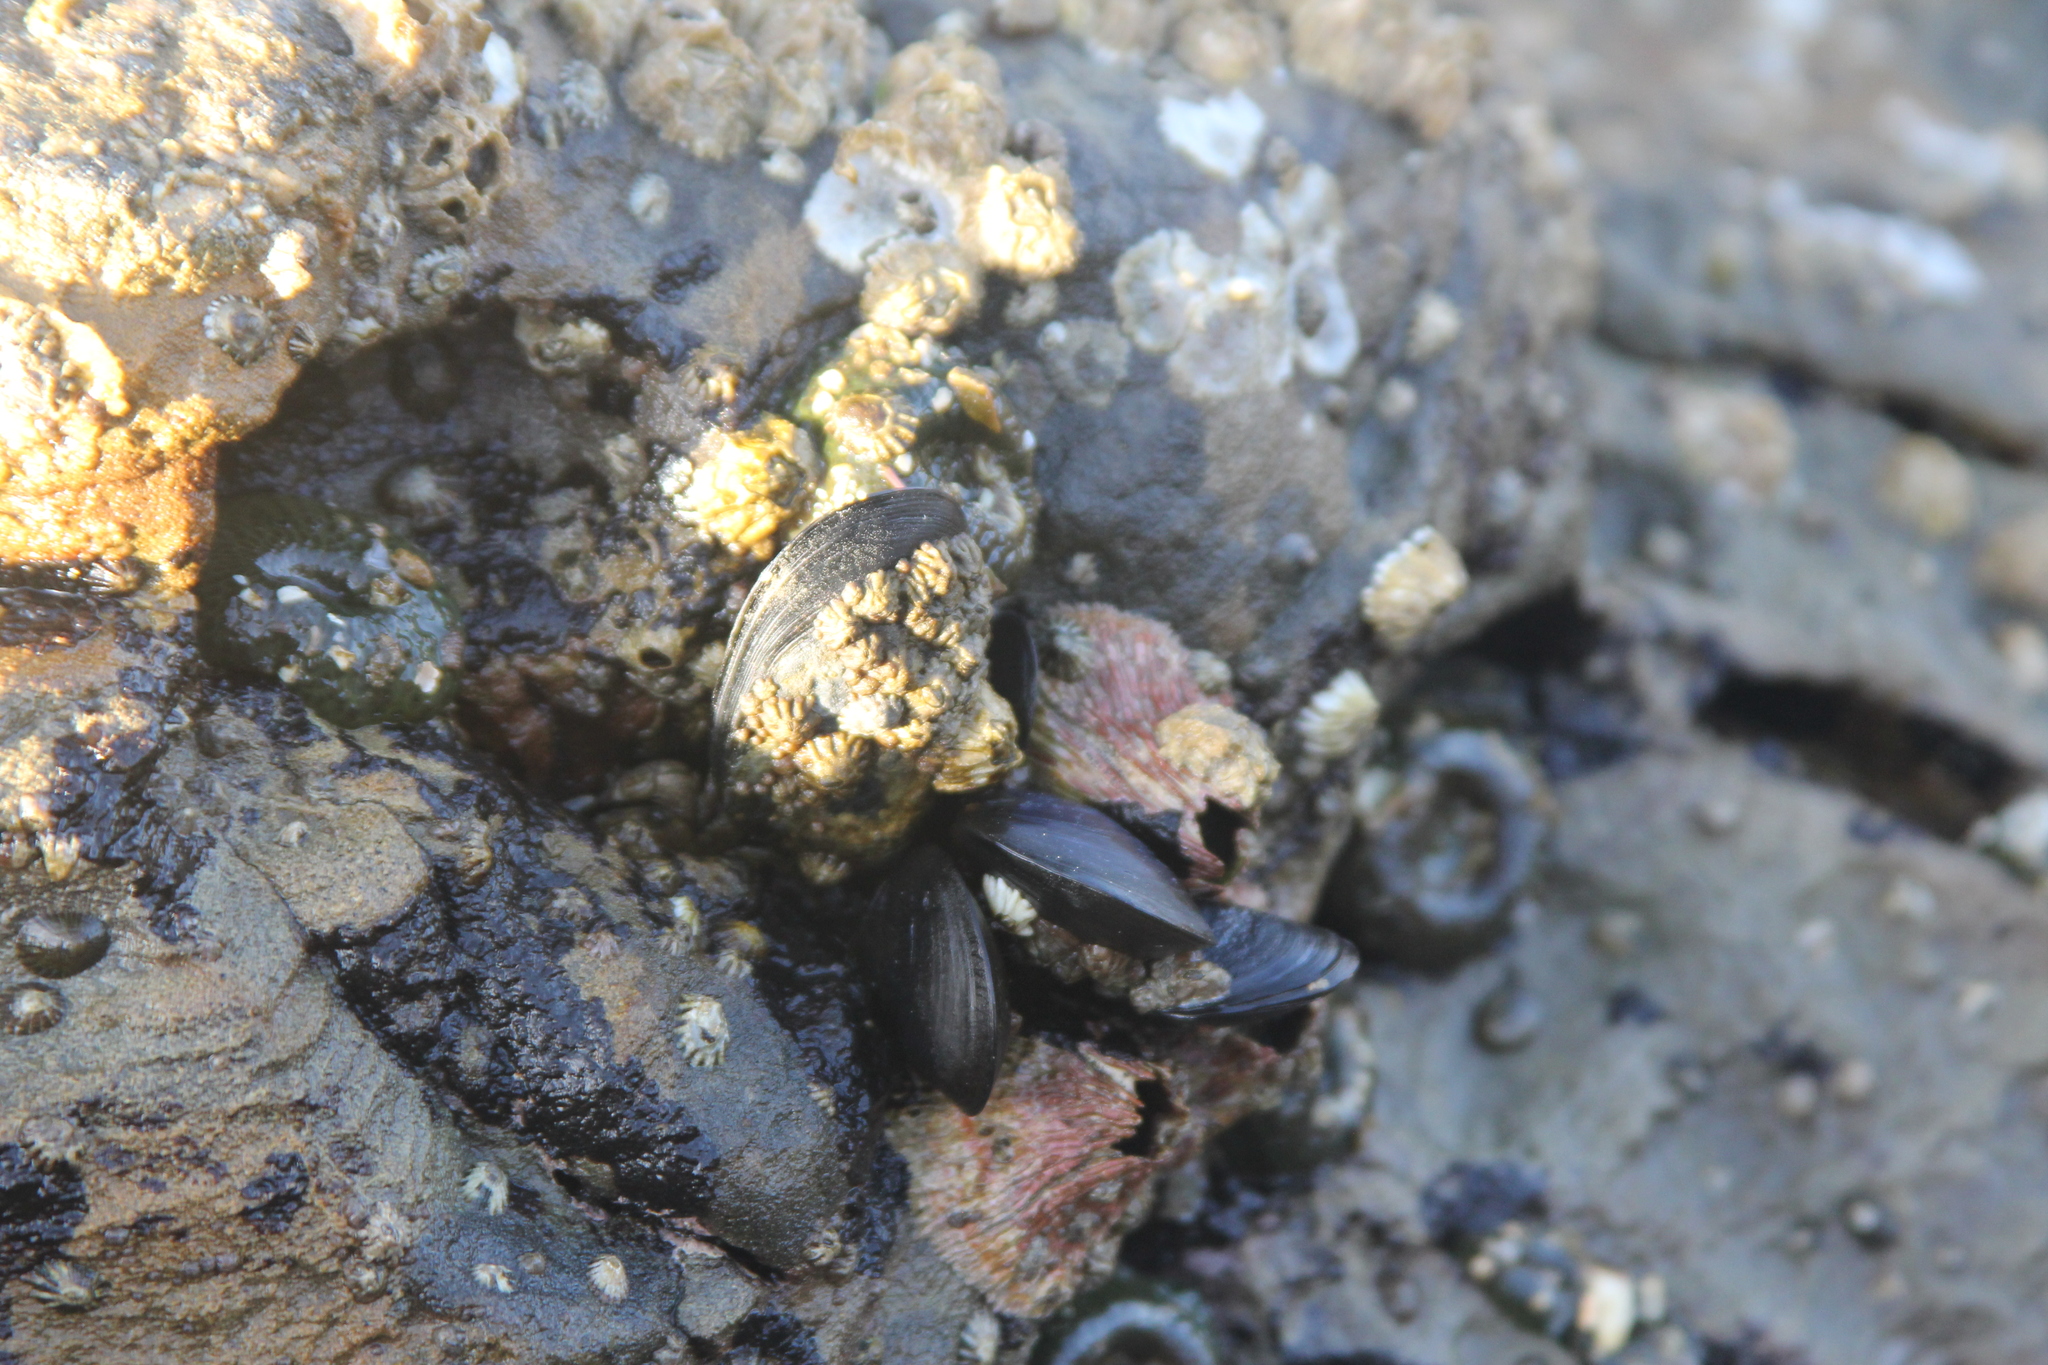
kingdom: Animalia
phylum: Mollusca
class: Bivalvia
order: Mytilida
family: Mytilidae
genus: Mytilus
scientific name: Mytilus
